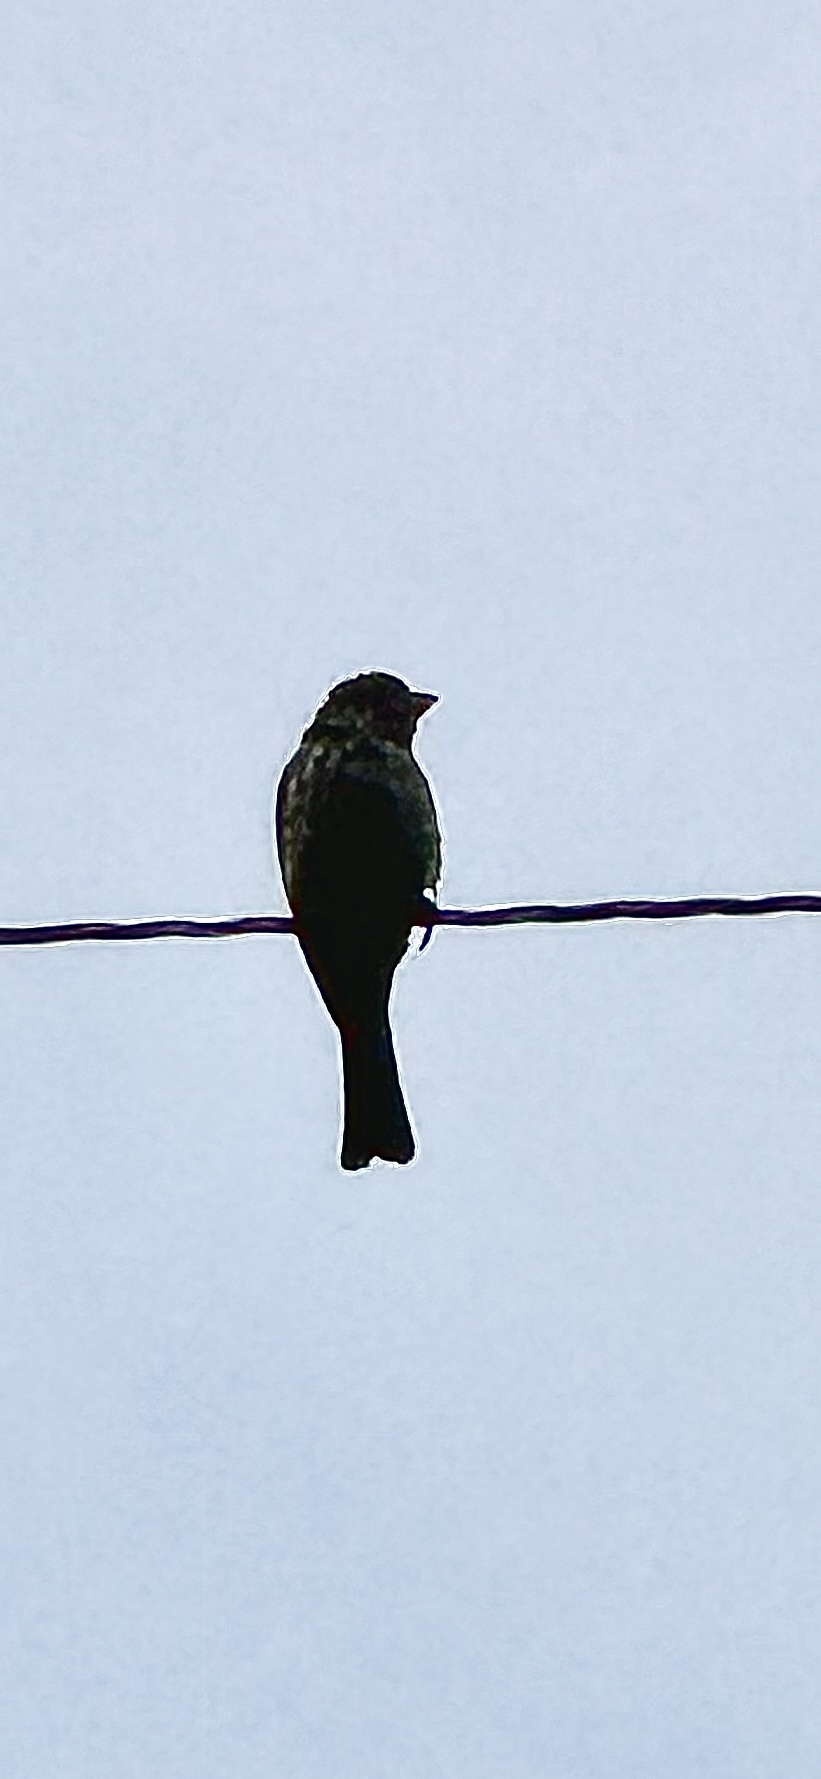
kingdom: Animalia
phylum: Chordata
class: Aves
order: Passeriformes
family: Fringillidae
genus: Haemorhous
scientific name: Haemorhous mexicanus
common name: House finch
